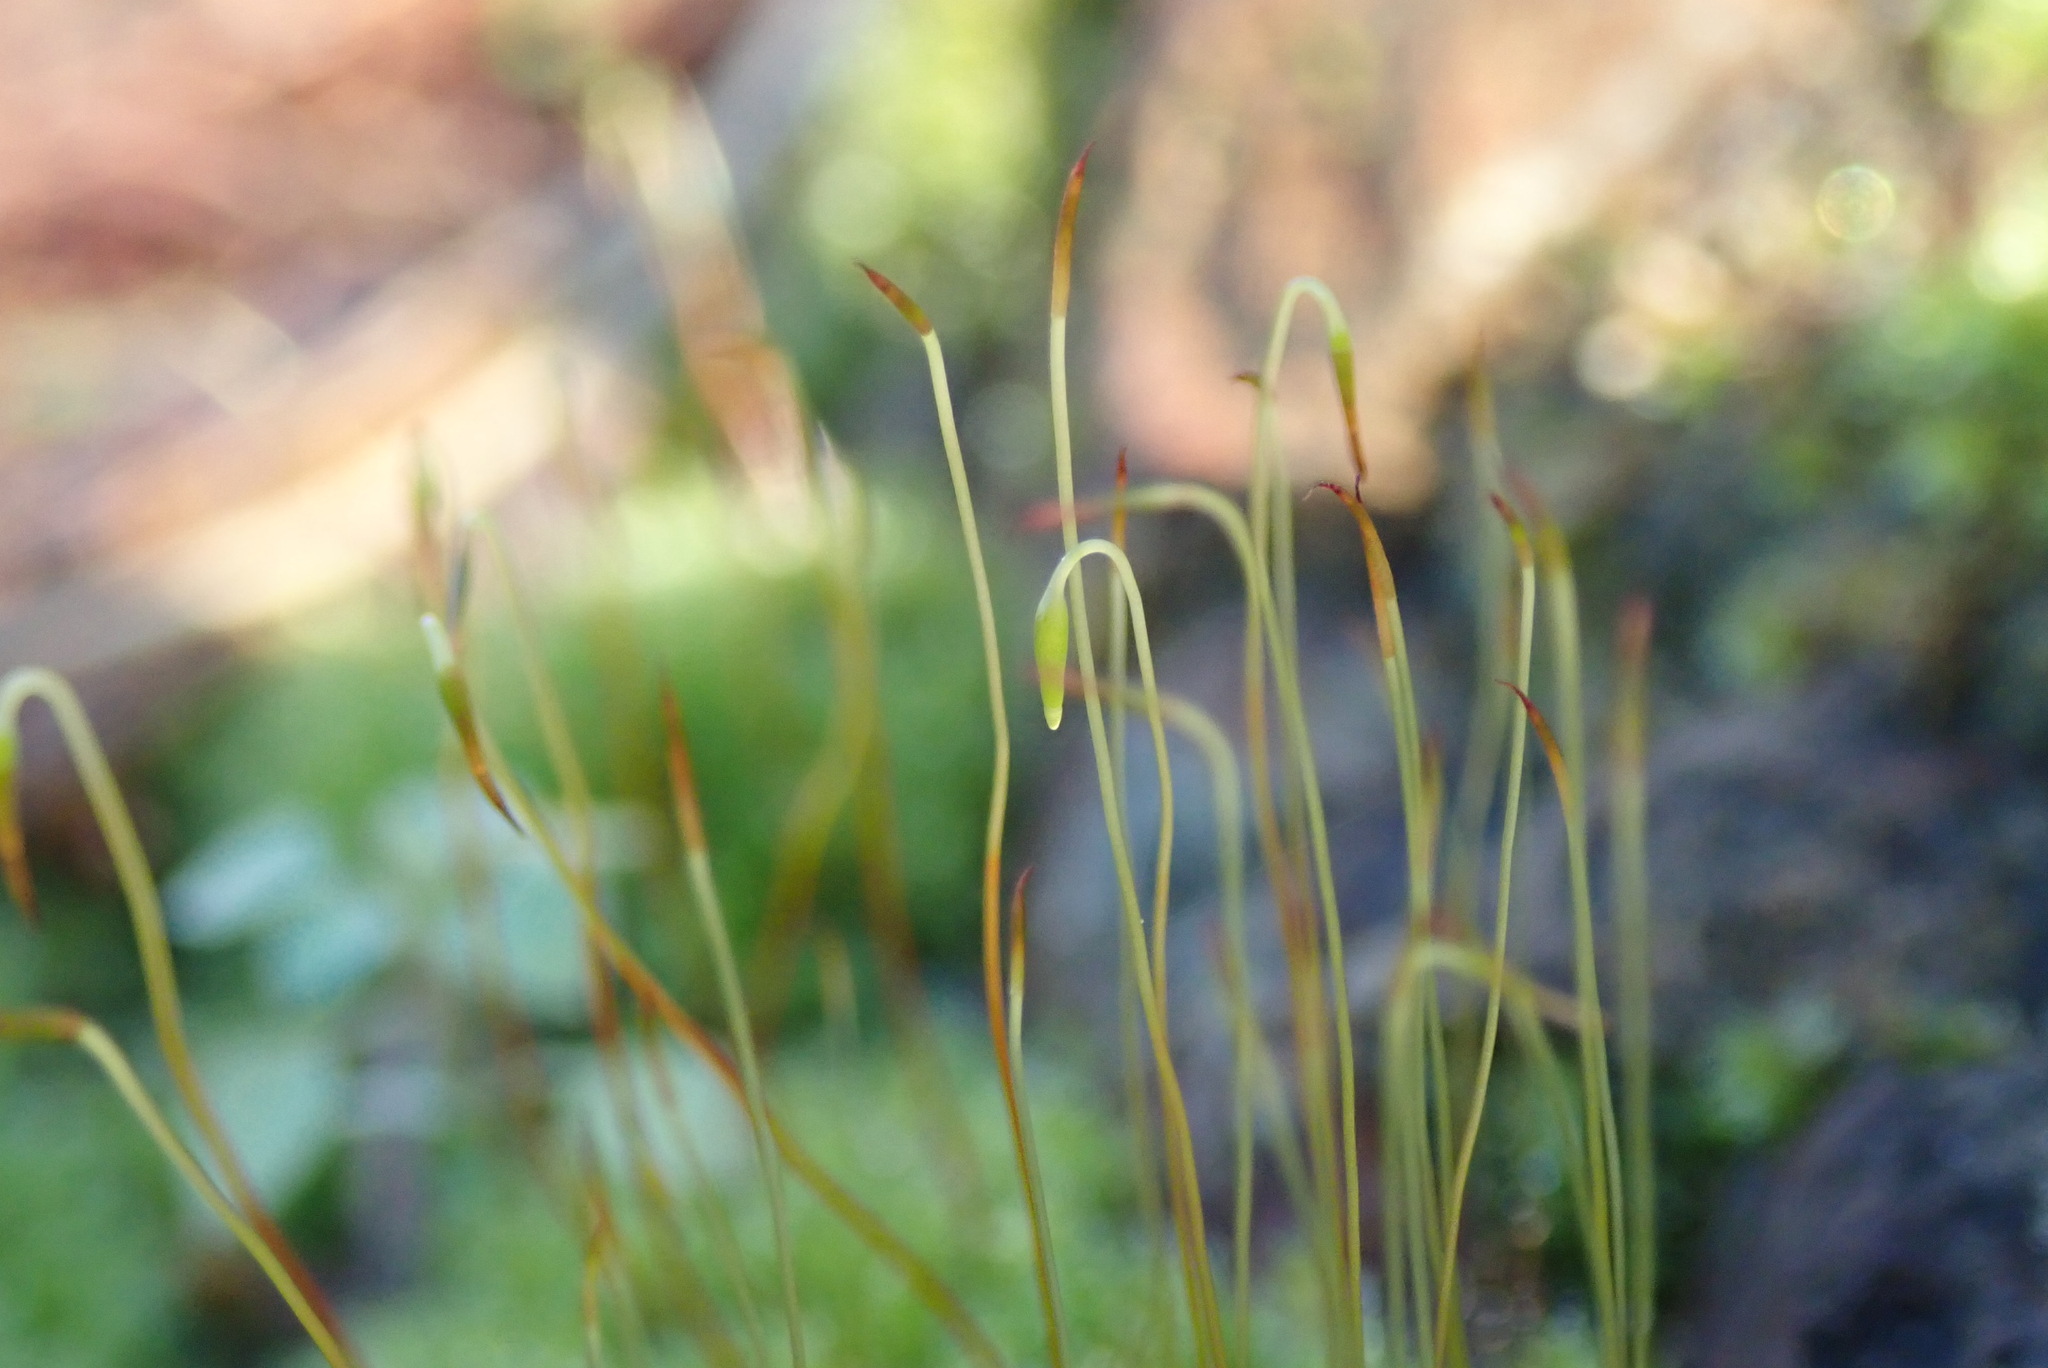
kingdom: Plantae
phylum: Bryophyta
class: Bryopsida
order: Bryales
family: Bryaceae
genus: Rosulabryum
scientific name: Rosulabryum capillare
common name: Capillary thread-moss
